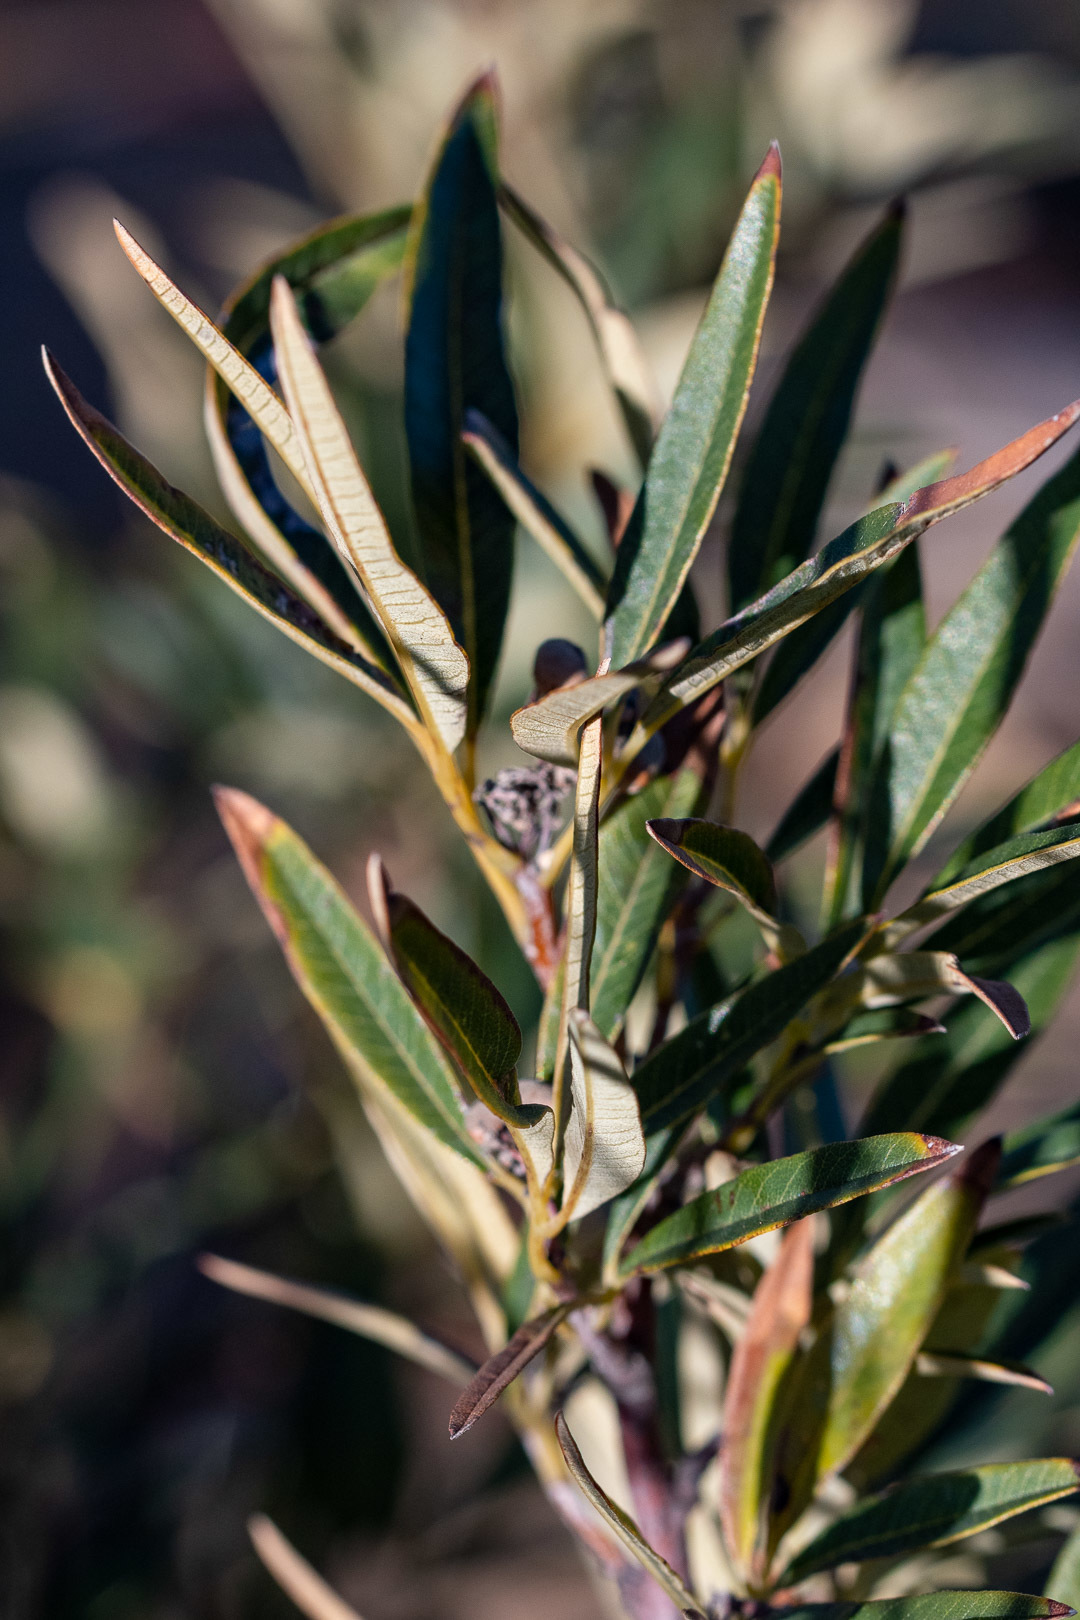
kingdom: Plantae
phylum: Tracheophyta
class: Magnoliopsida
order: Sapindales
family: Anacardiaceae
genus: Searsia
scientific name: Searsia angustifolia
